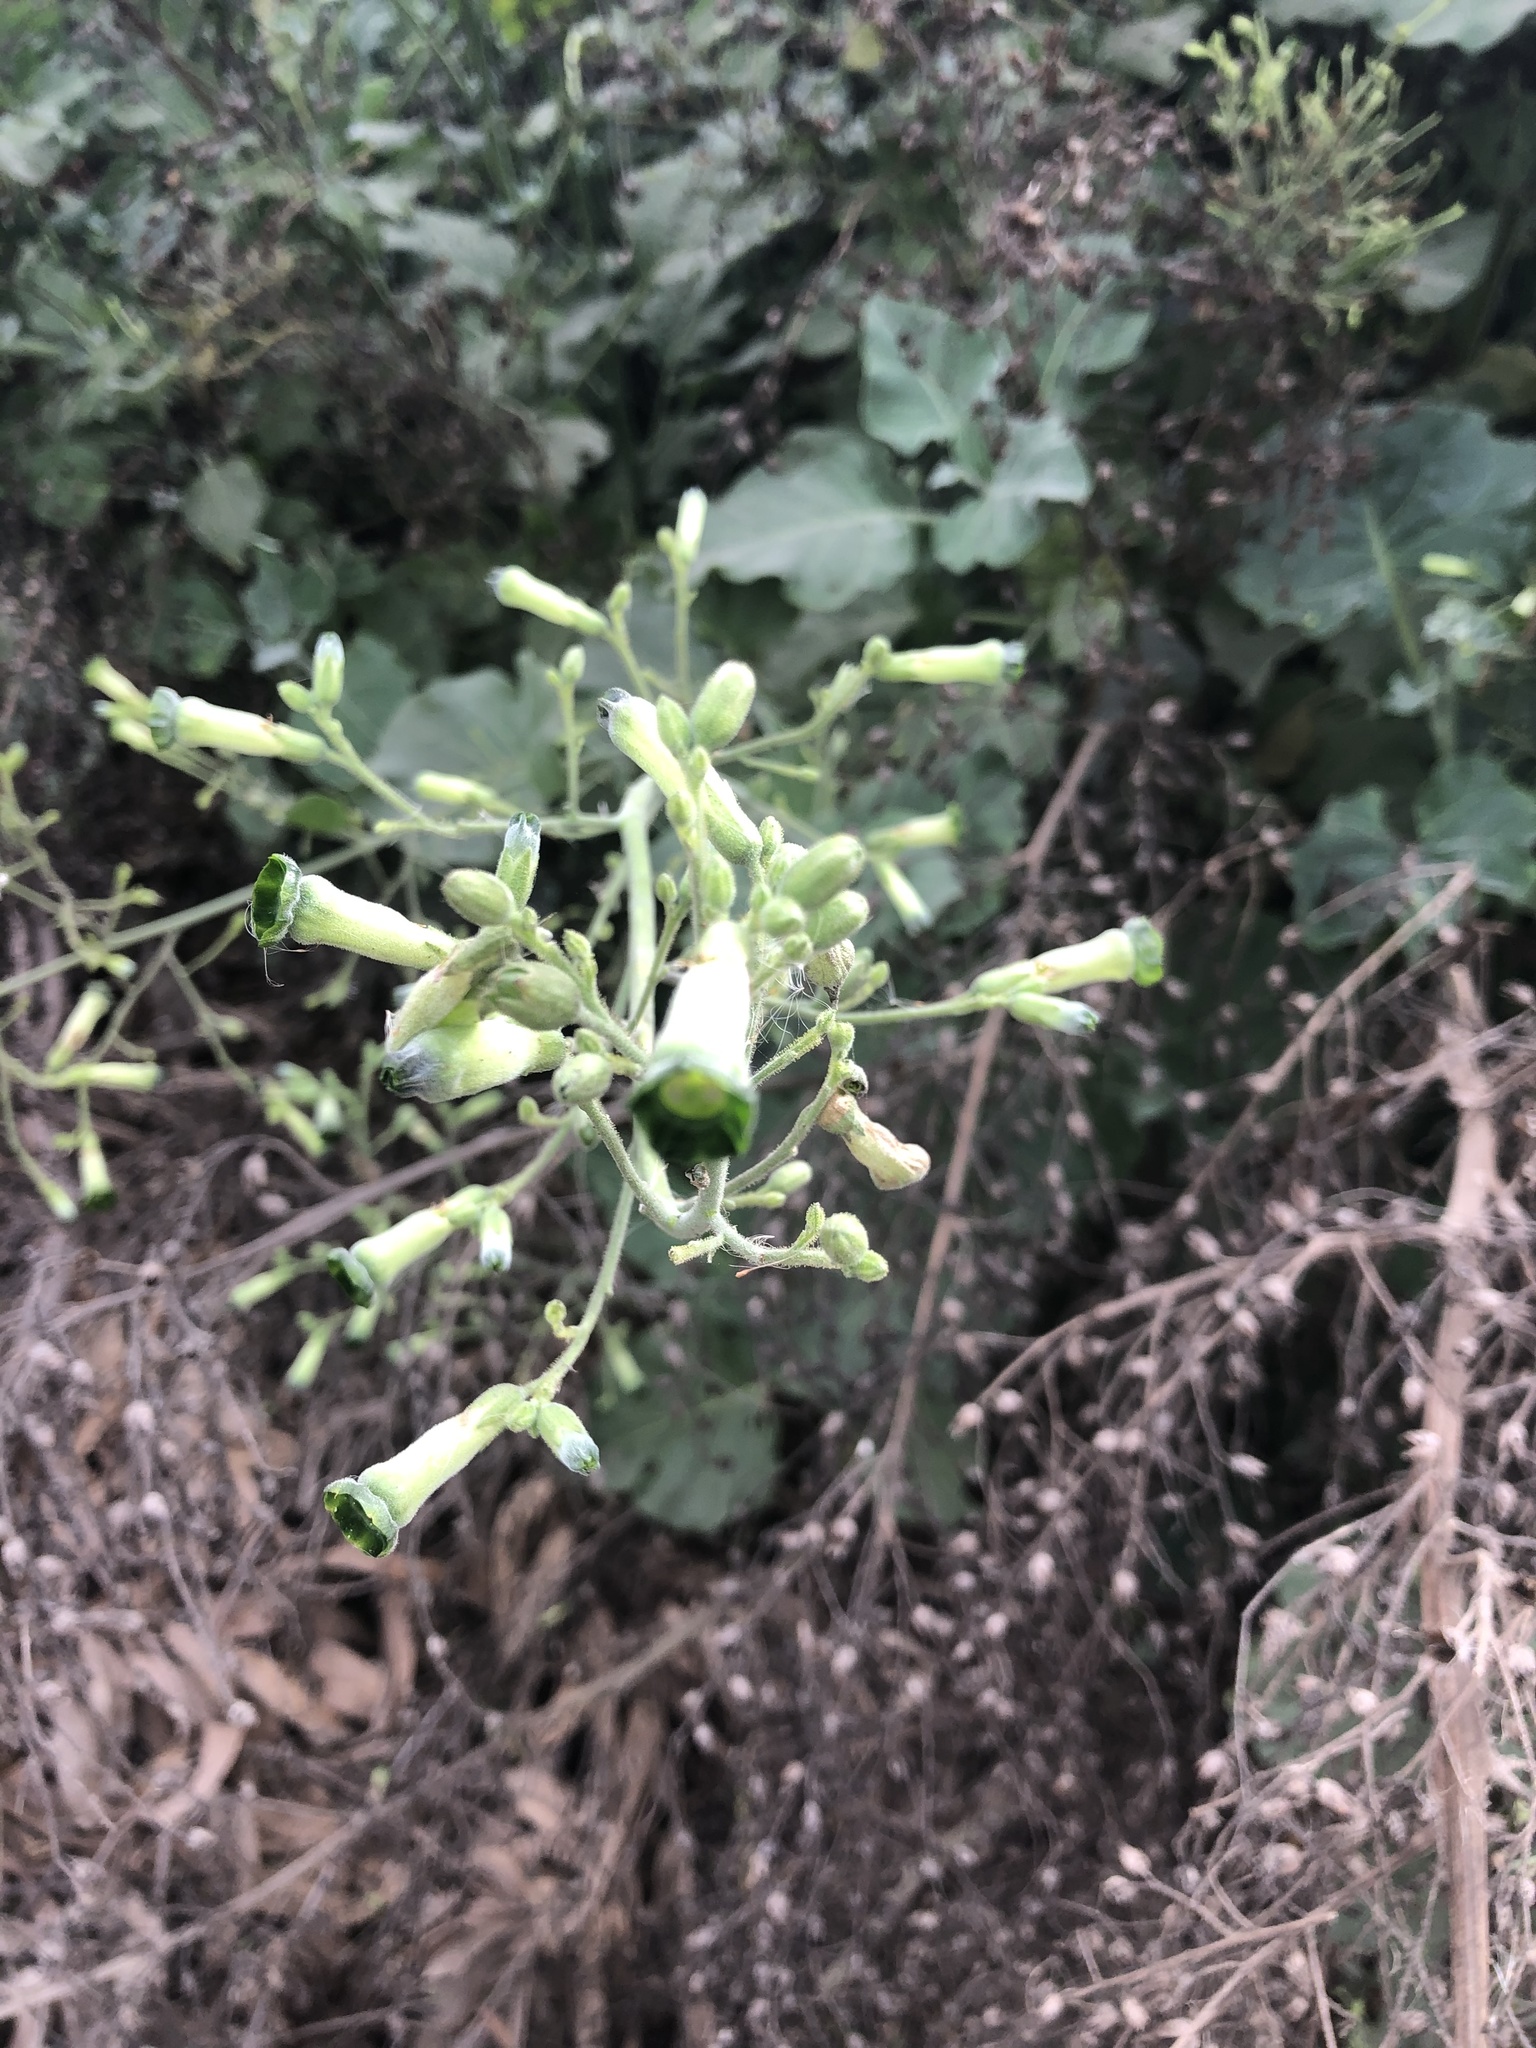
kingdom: Plantae
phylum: Tracheophyta
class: Magnoliopsida
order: Solanales
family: Solanaceae
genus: Nicotiana
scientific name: Nicotiana knightiana
